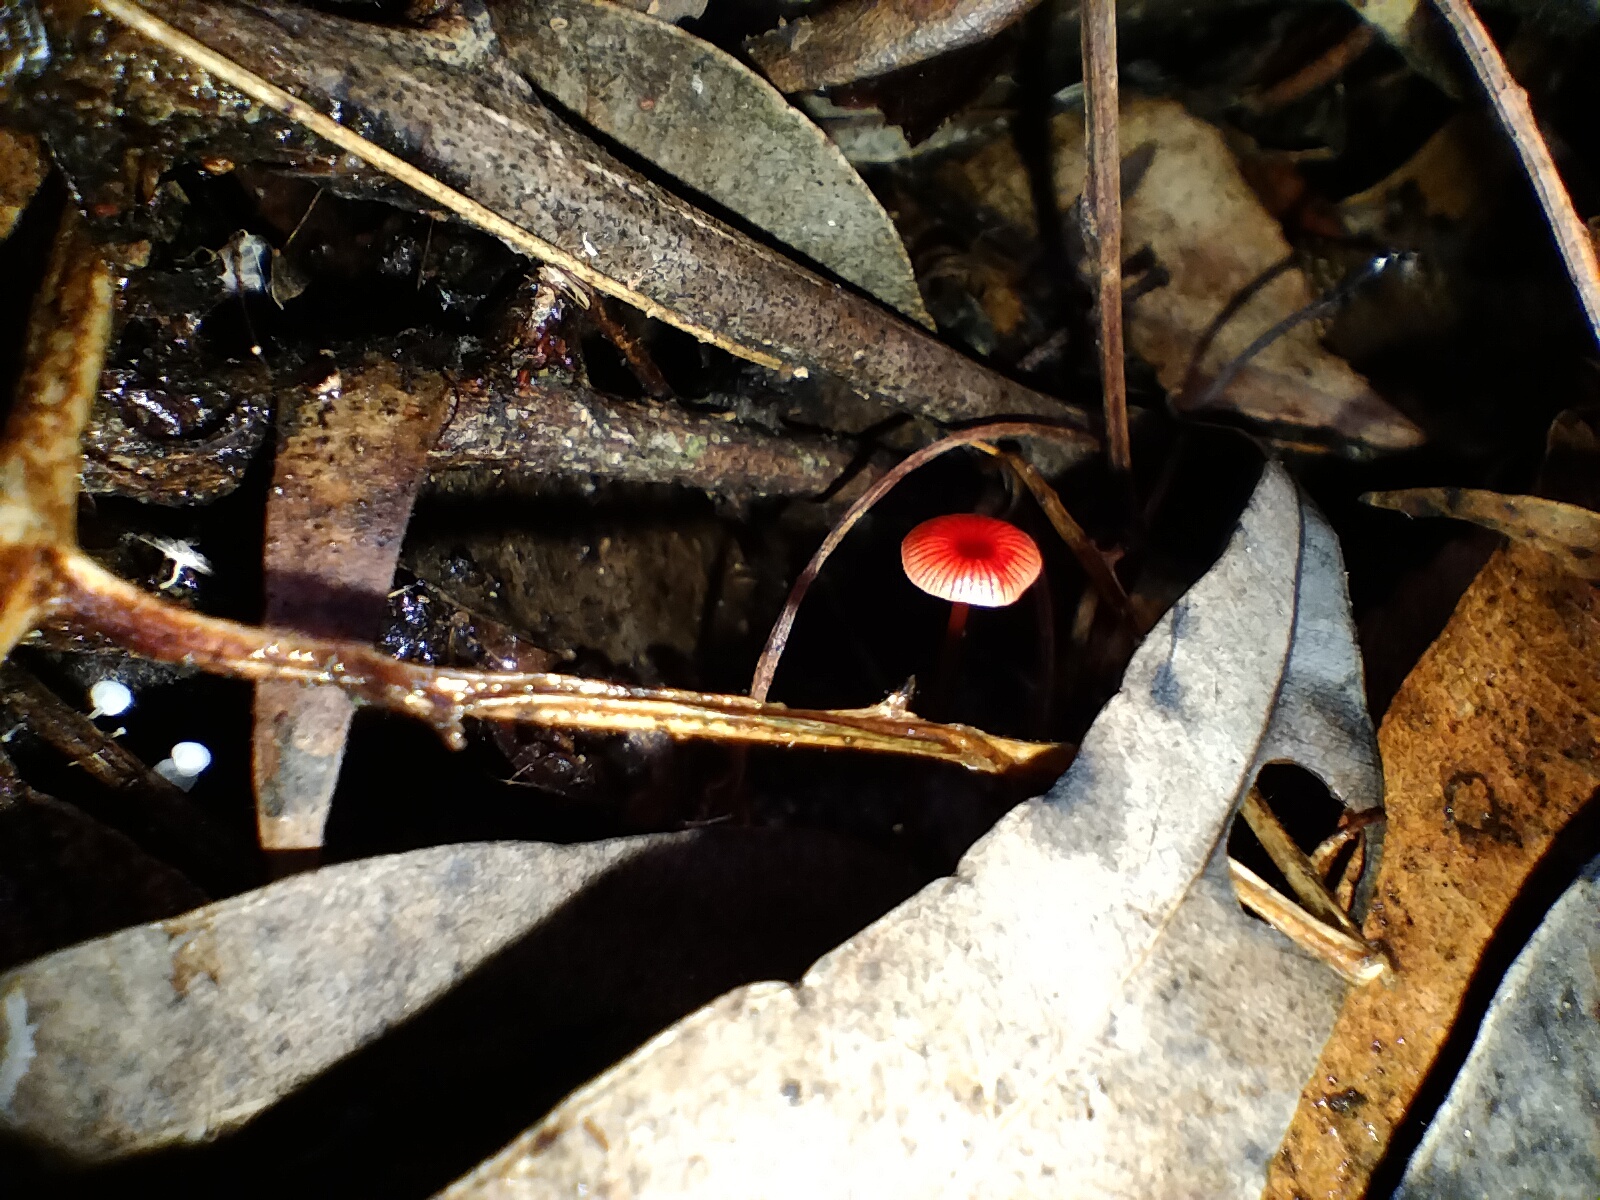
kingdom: Fungi
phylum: Basidiomycota
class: Agaricomycetes
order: Agaricales
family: Mycenaceae
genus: Cruentomycena
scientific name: Cruentomycena viscidocruenta
